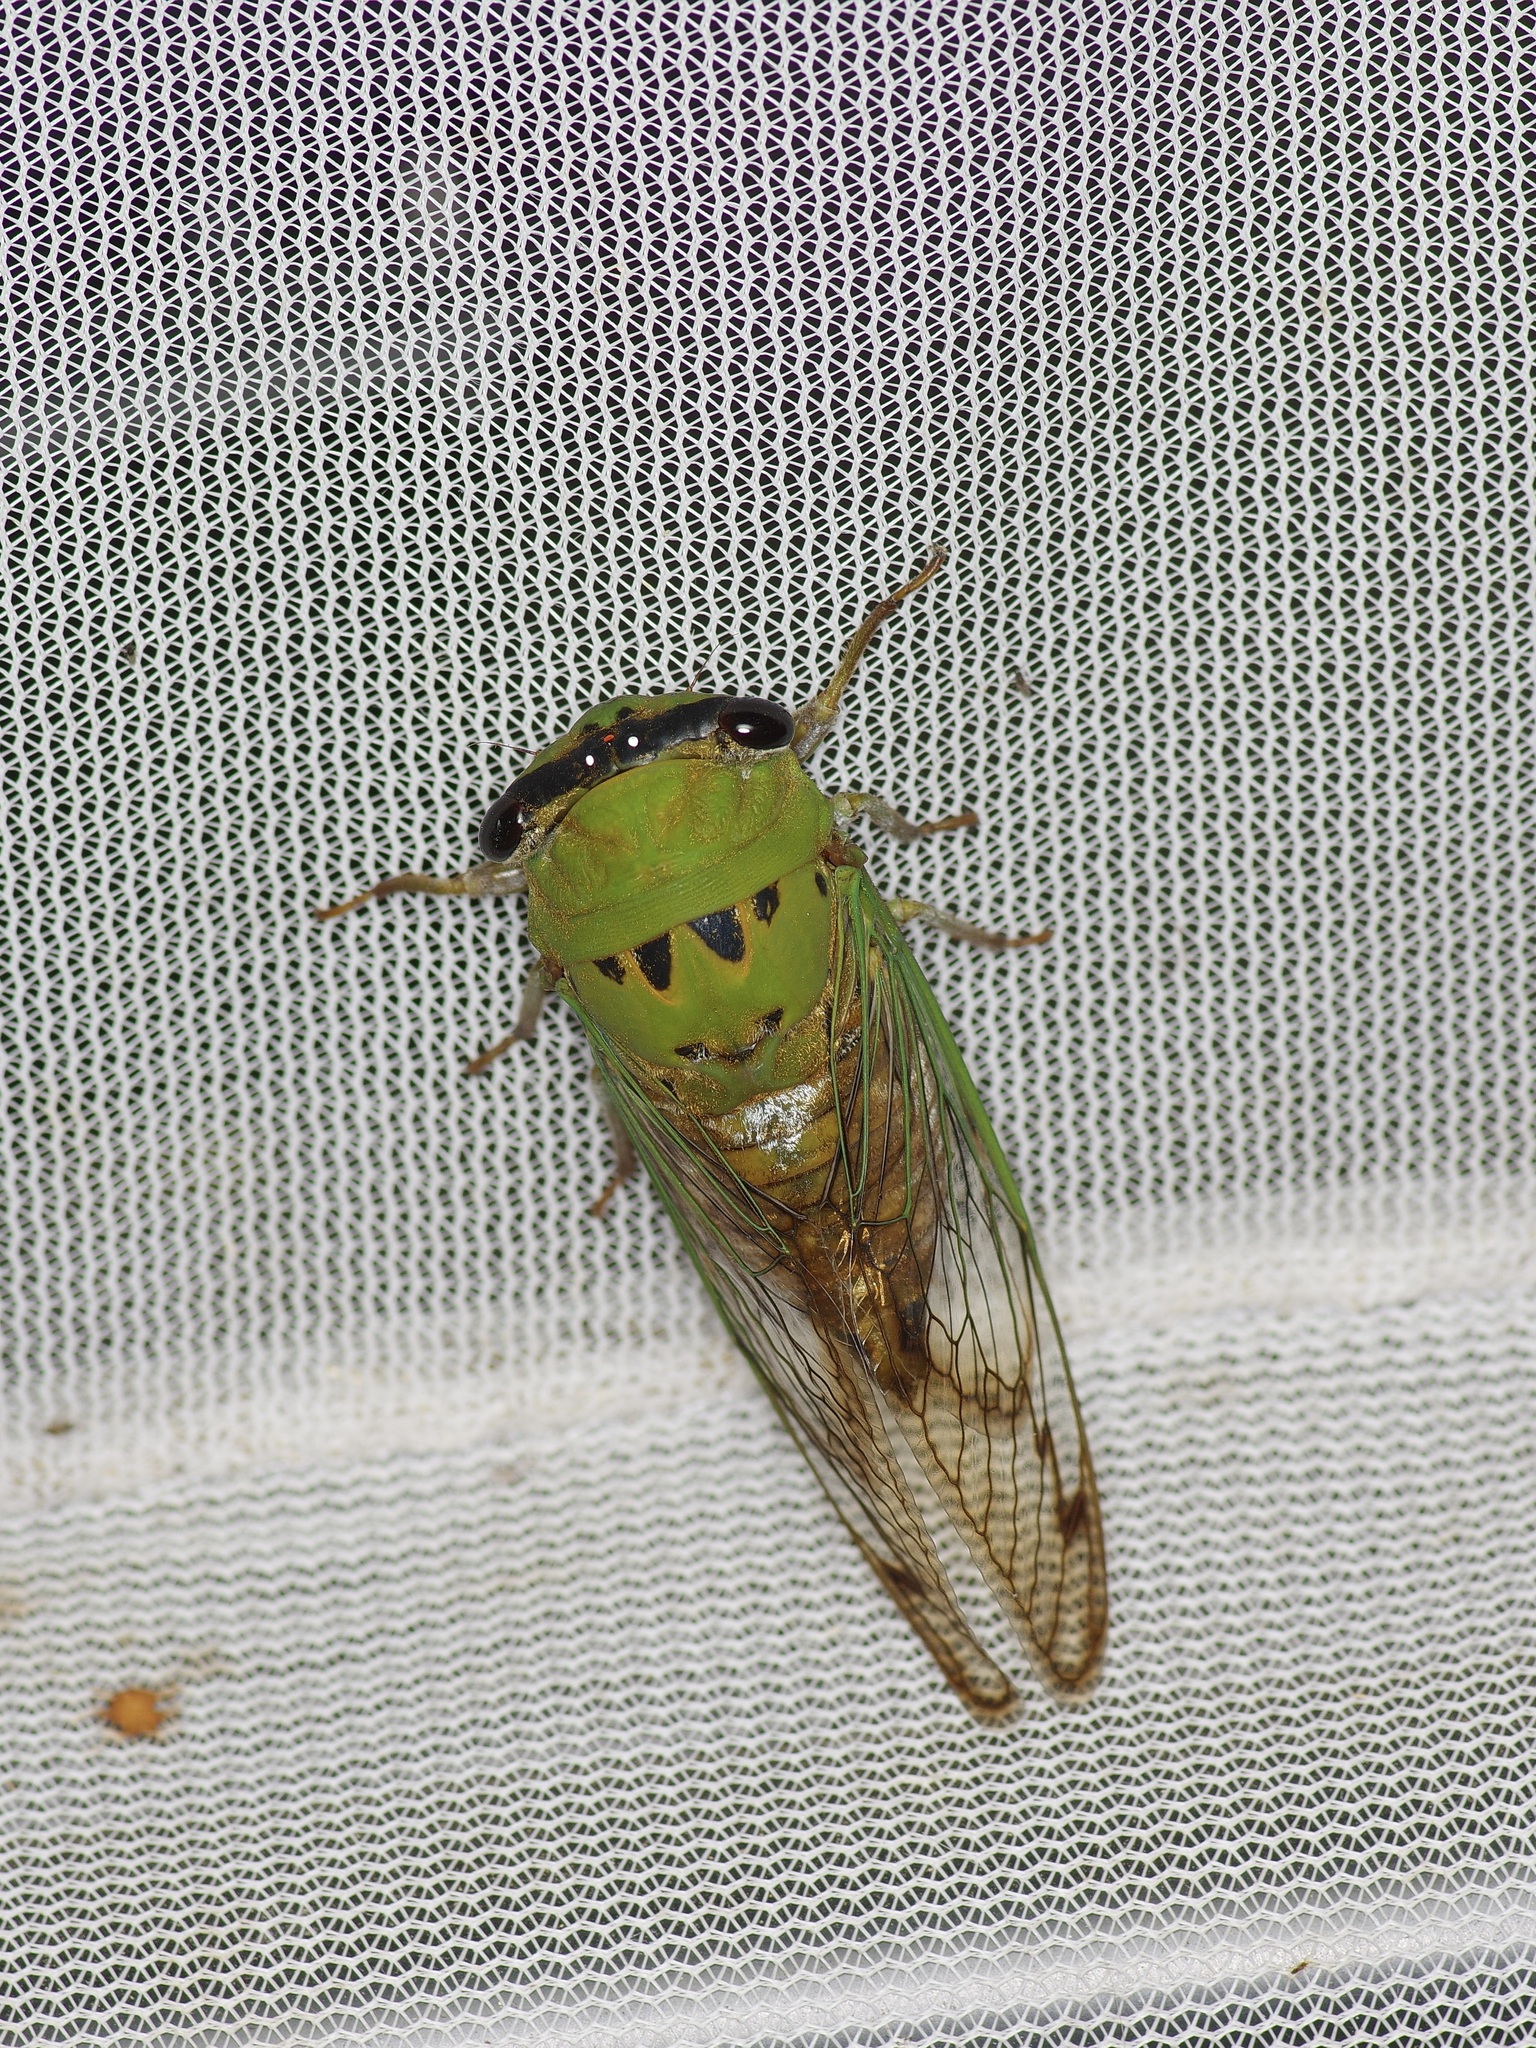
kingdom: Animalia
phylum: Arthropoda
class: Insecta
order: Hemiptera
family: Cicadidae
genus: Neotibicen
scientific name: Neotibicen superbus
